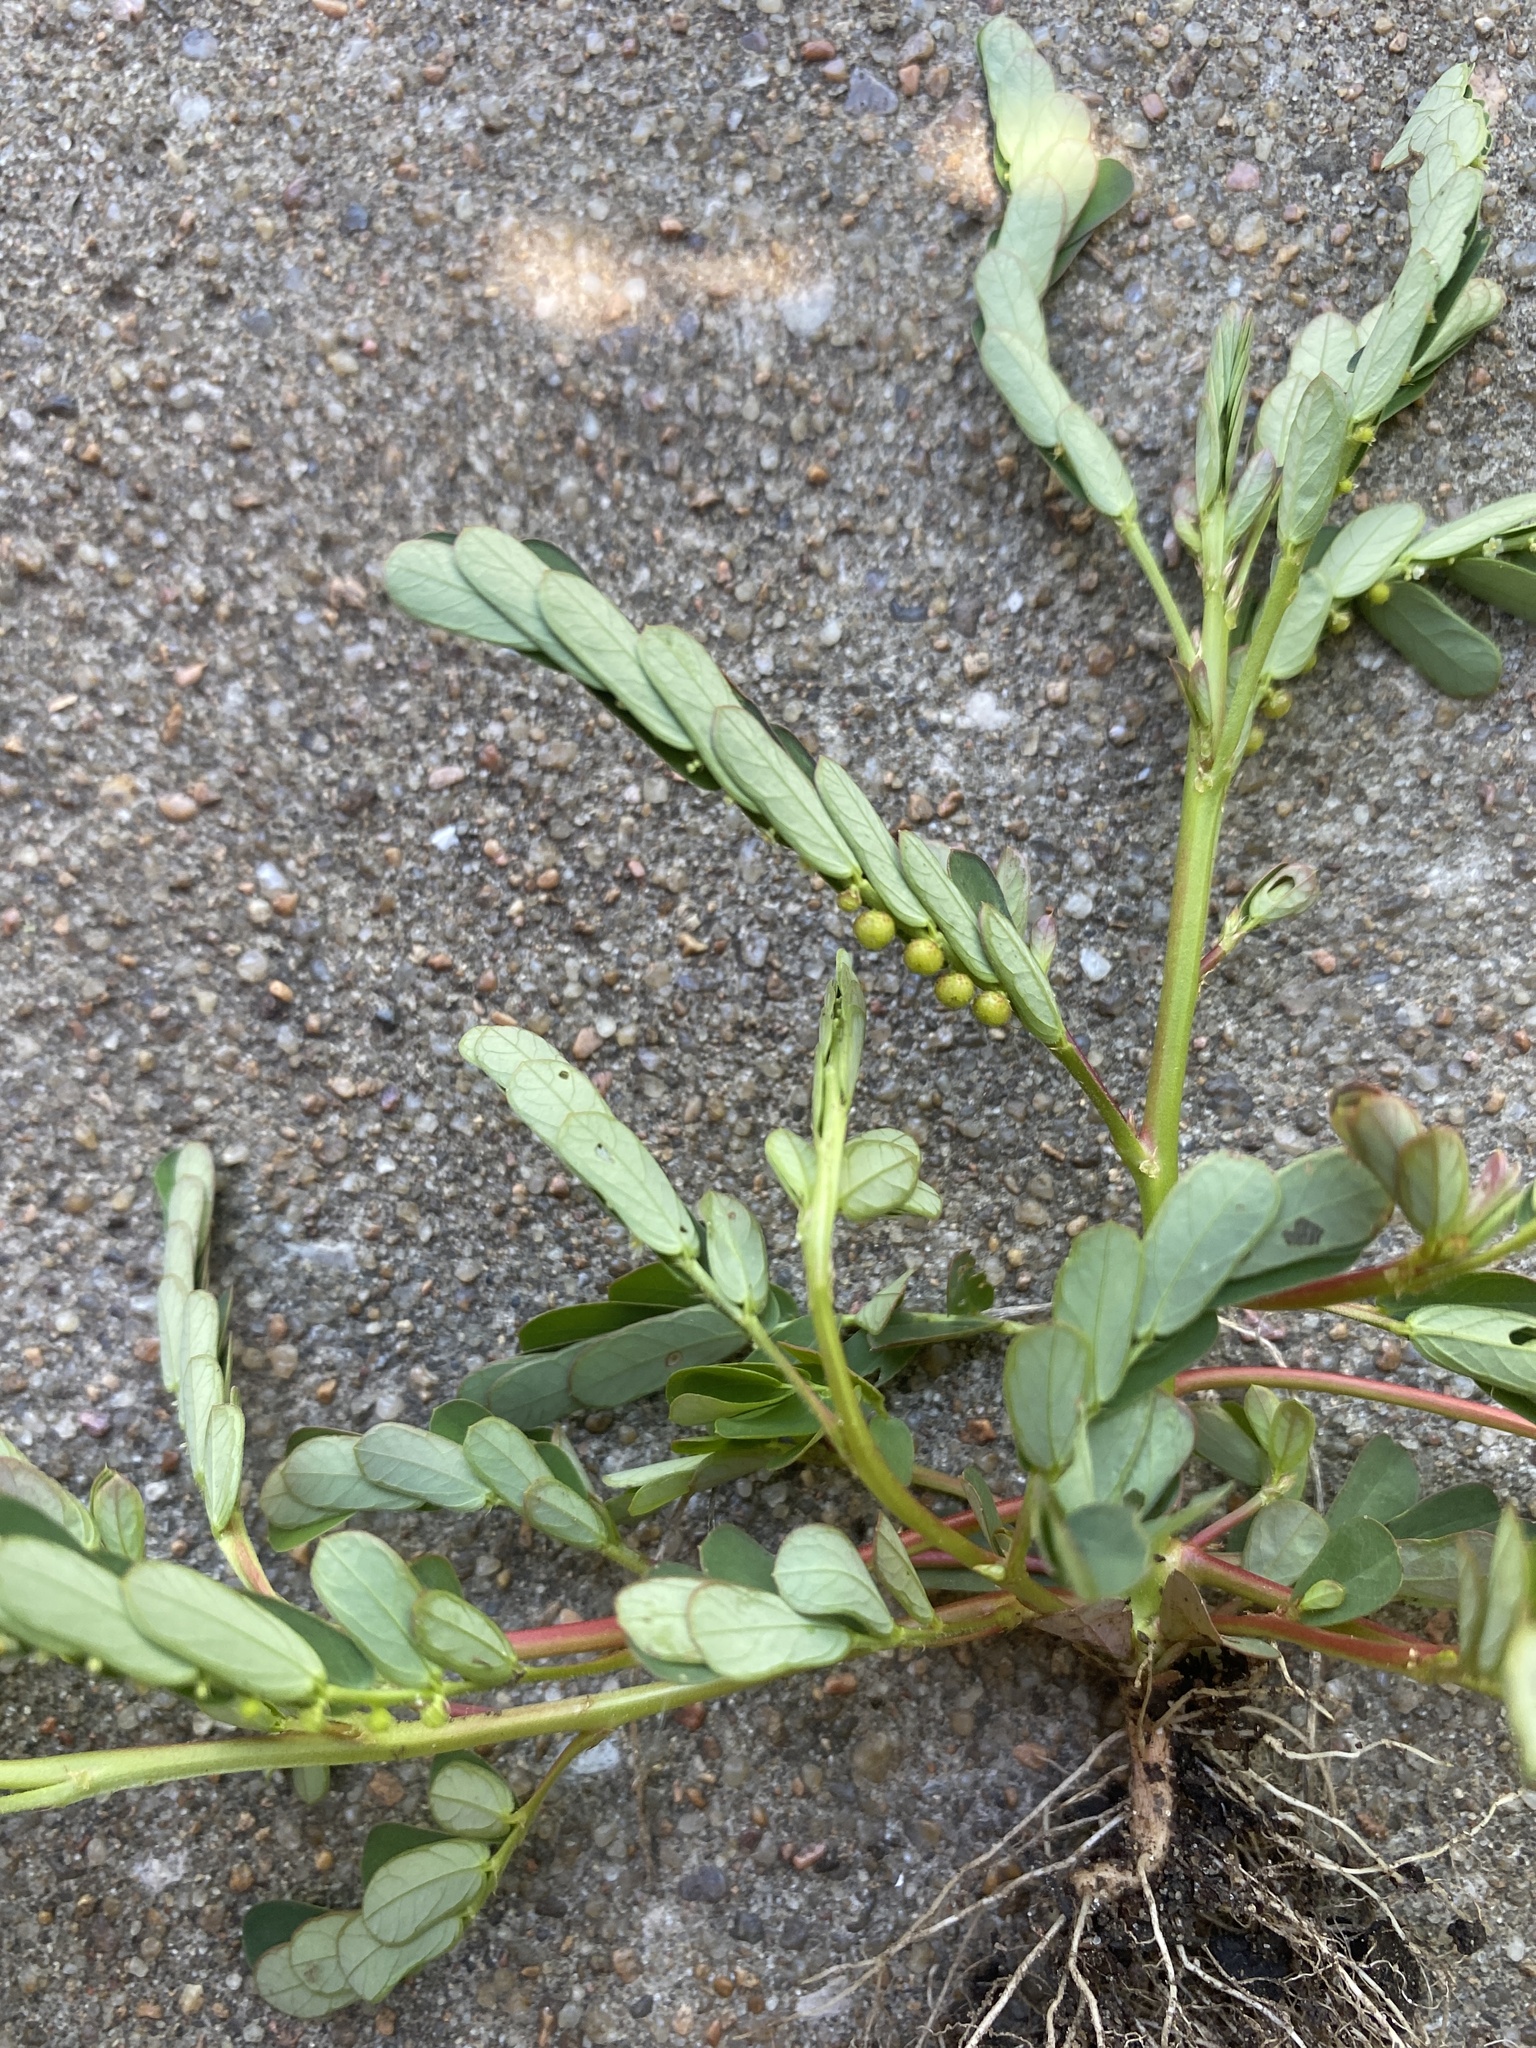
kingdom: Plantae
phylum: Tracheophyta
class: Magnoliopsida
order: Malpighiales
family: Phyllanthaceae
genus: Phyllanthus
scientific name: Phyllanthus urinaria
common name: Chamber bitter
